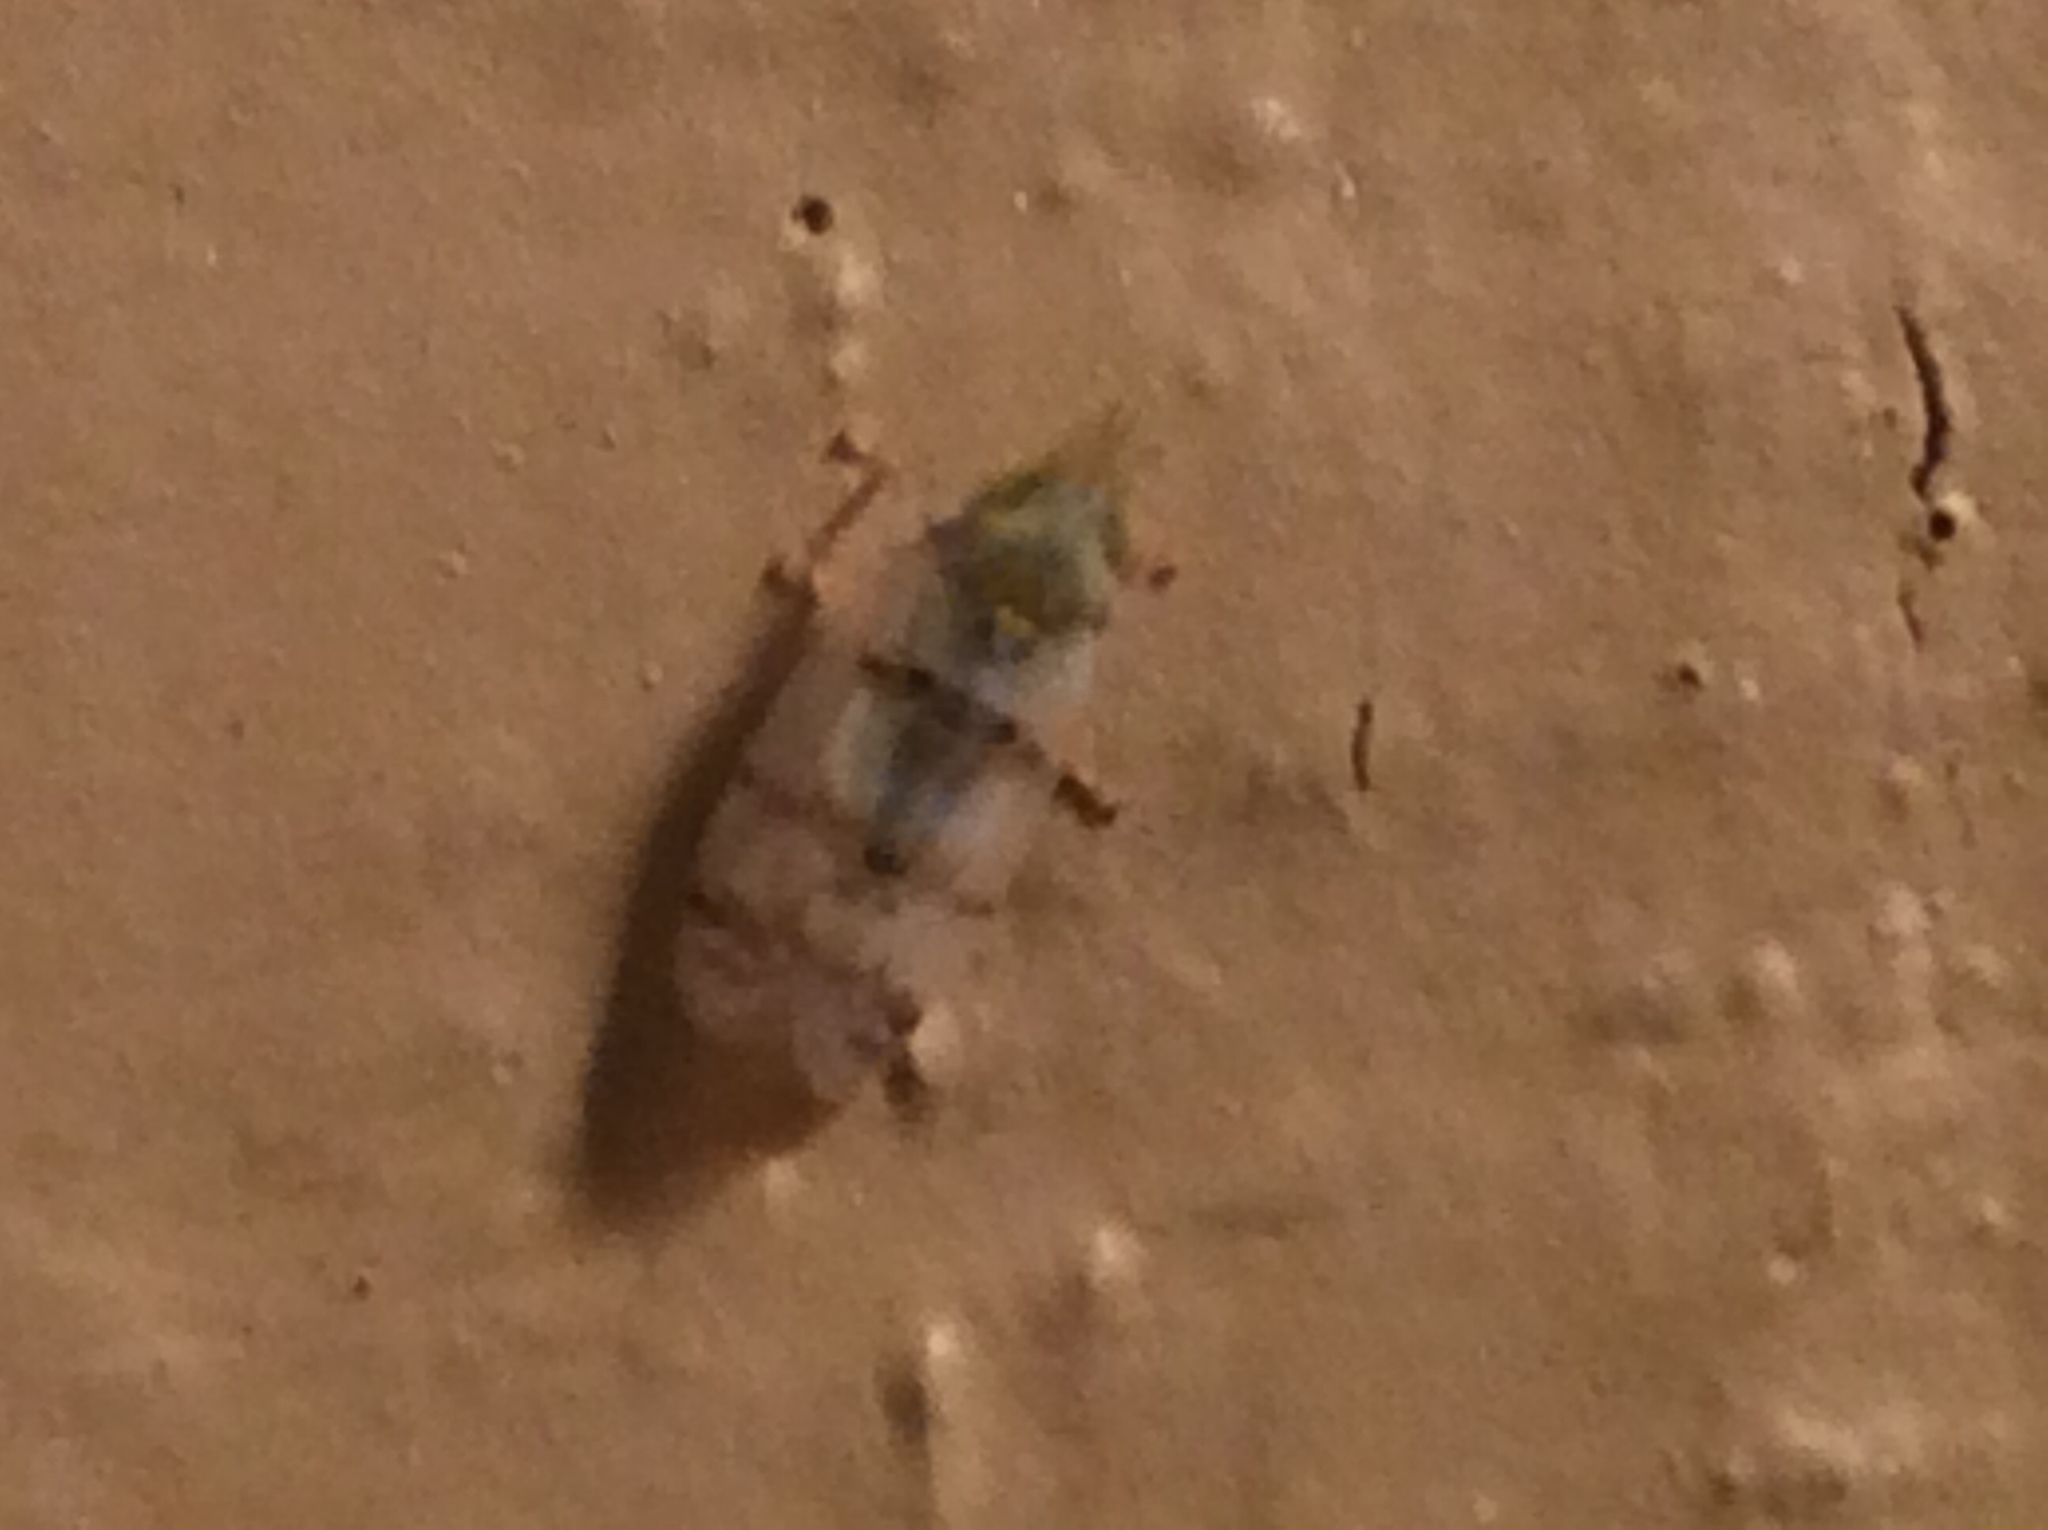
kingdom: Animalia
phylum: Arthropoda
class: Insecta
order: Hemiptera
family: Cicadellidae
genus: Japananus
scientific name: Japananus hyalinus
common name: The japanese maple leafhopper
